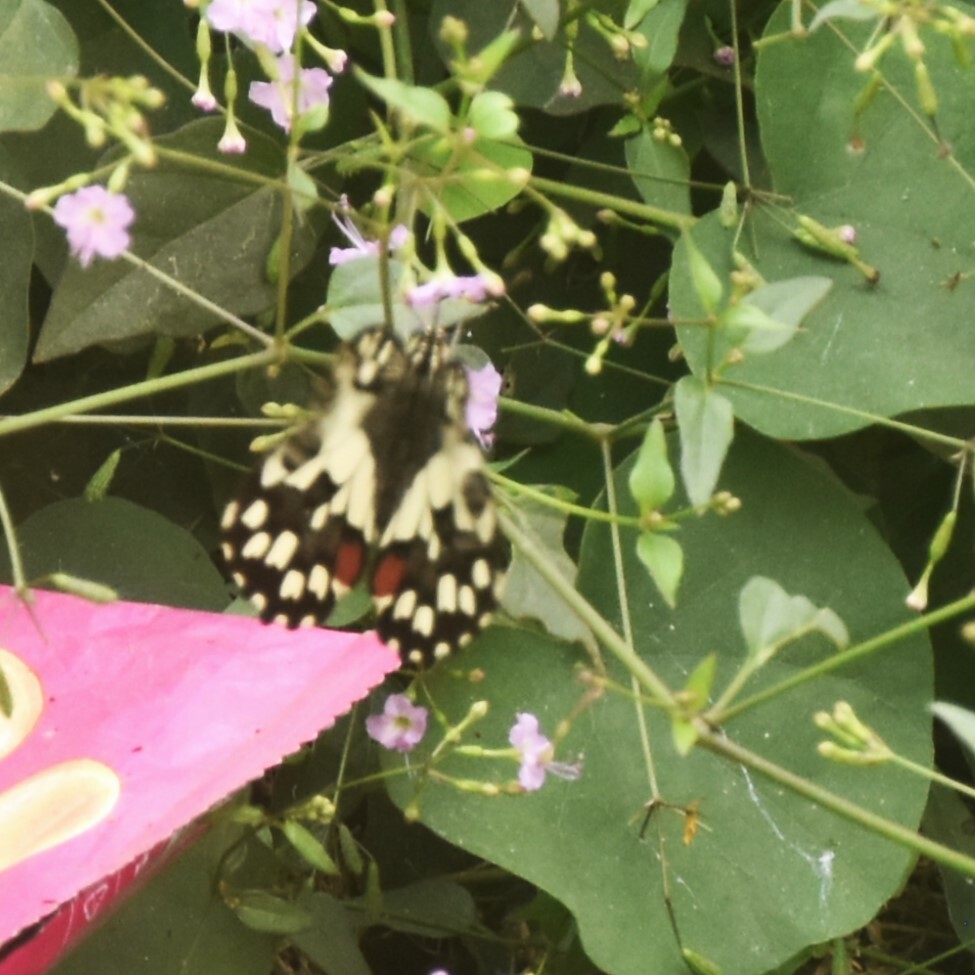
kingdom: Animalia
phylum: Arthropoda
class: Insecta
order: Lepidoptera
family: Papilionidae
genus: Papilio
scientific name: Papilio demoleus
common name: Lime butterfly
